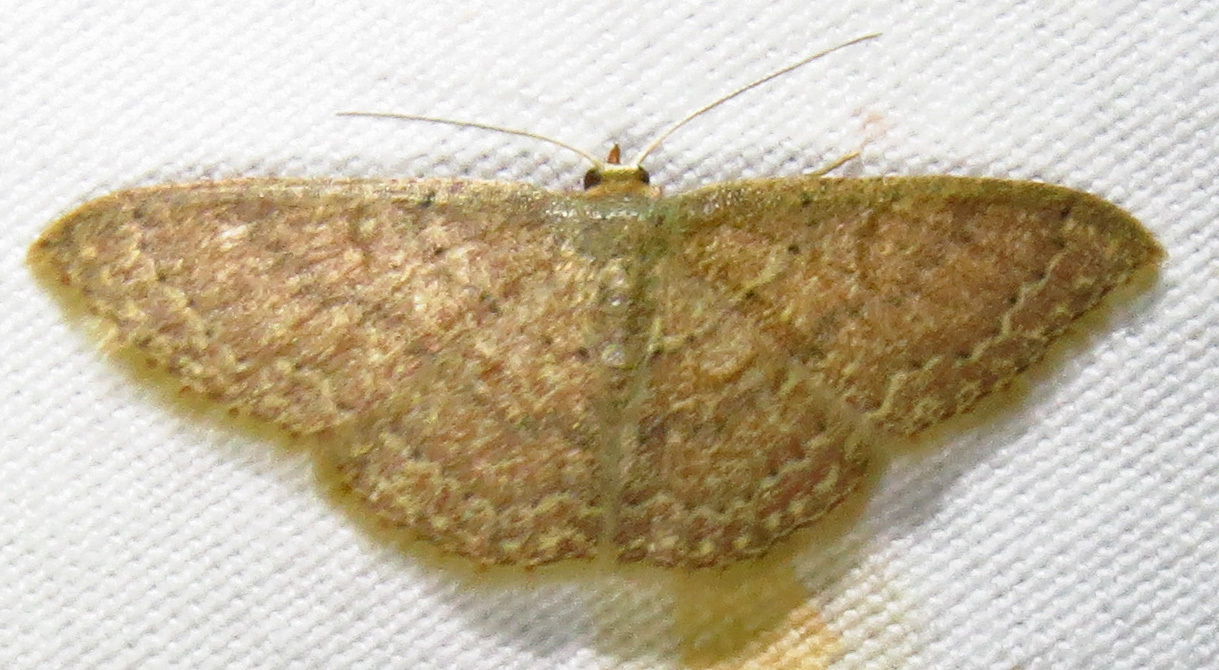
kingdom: Animalia
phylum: Arthropoda
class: Insecta
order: Lepidoptera
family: Geometridae
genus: Pleuroprucha
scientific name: Pleuroprucha insulsaria
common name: Common tan wave
